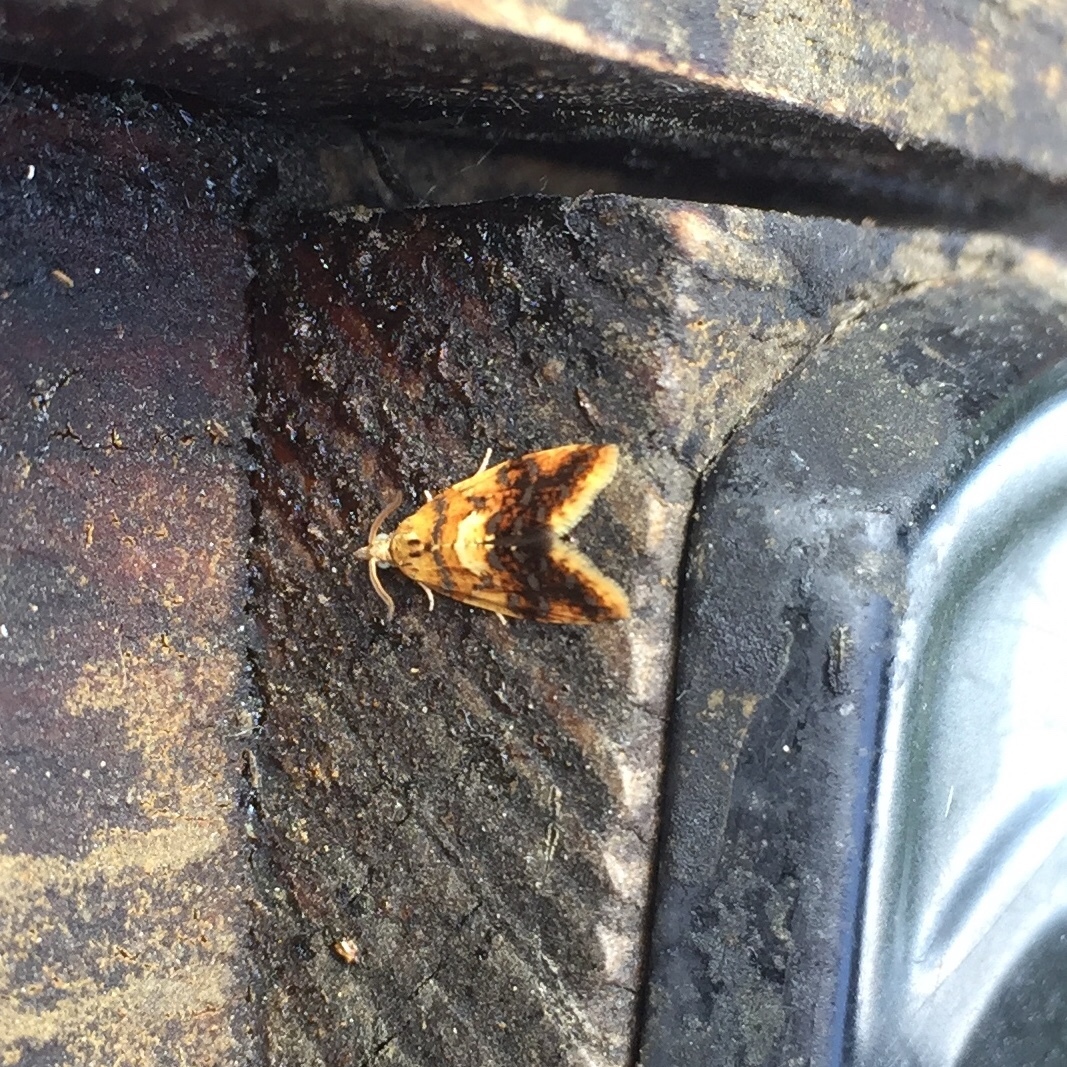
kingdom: Animalia
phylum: Arthropoda
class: Insecta
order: Lepidoptera
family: Tortricidae
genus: Pseudargyrotoza
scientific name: Pseudargyrotoza conwagana
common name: Yellow-spot twist
